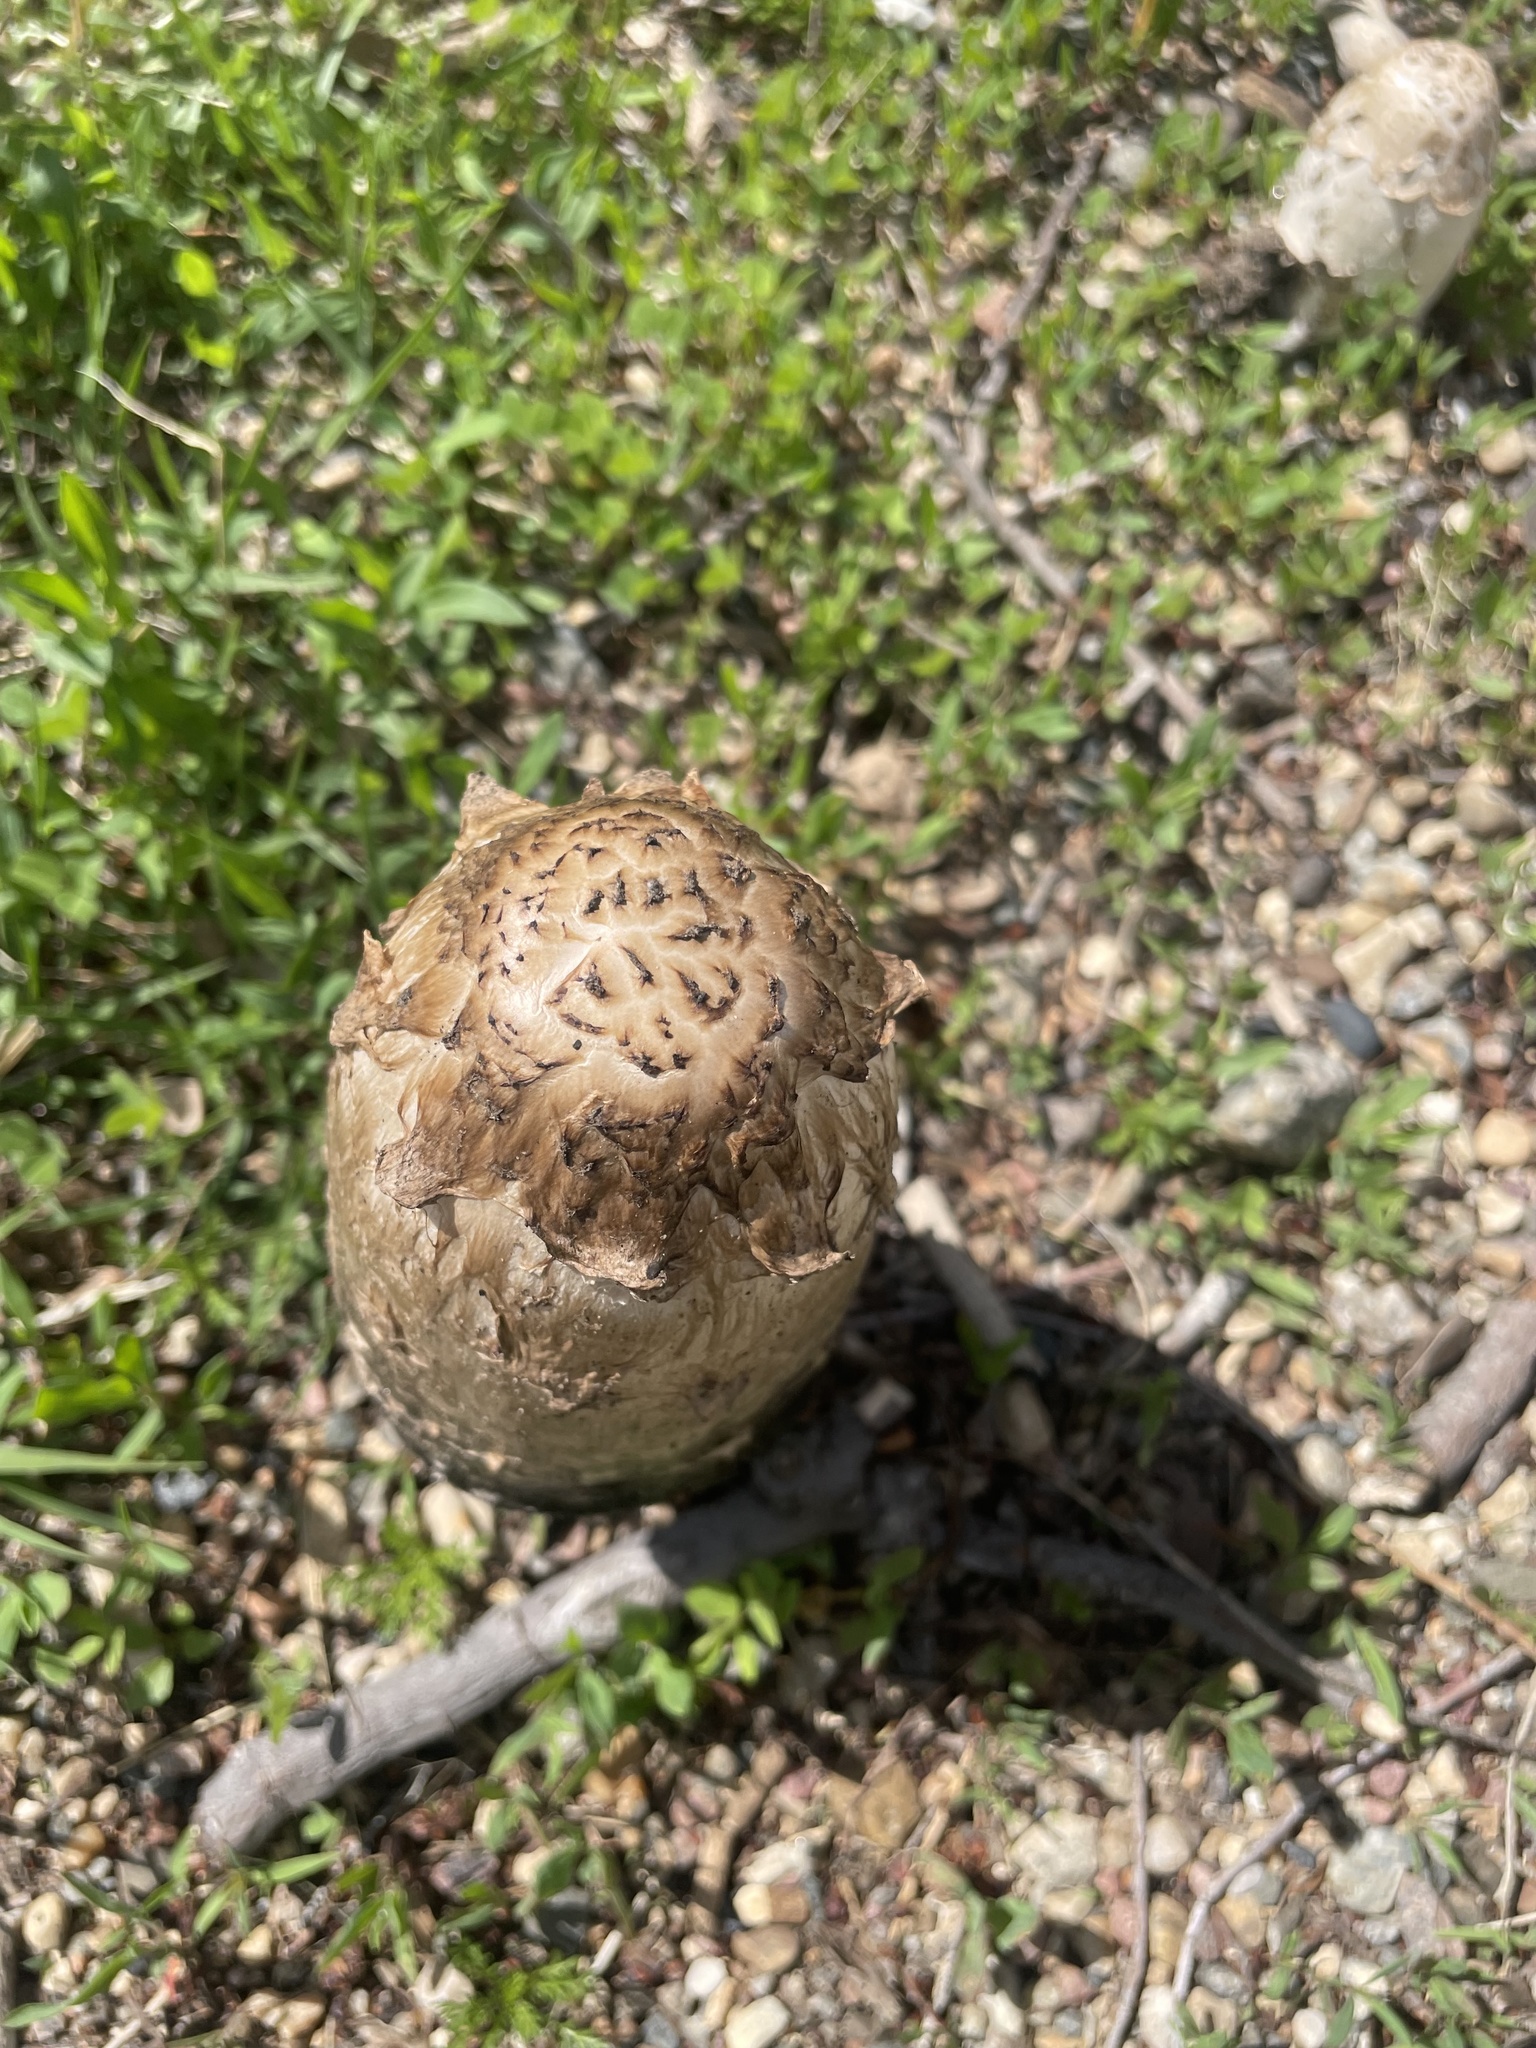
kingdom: Fungi
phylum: Basidiomycota
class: Agaricomycetes
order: Agaricales
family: Agaricaceae
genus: Coprinus
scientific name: Coprinus comatus
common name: Lawyer's wig
